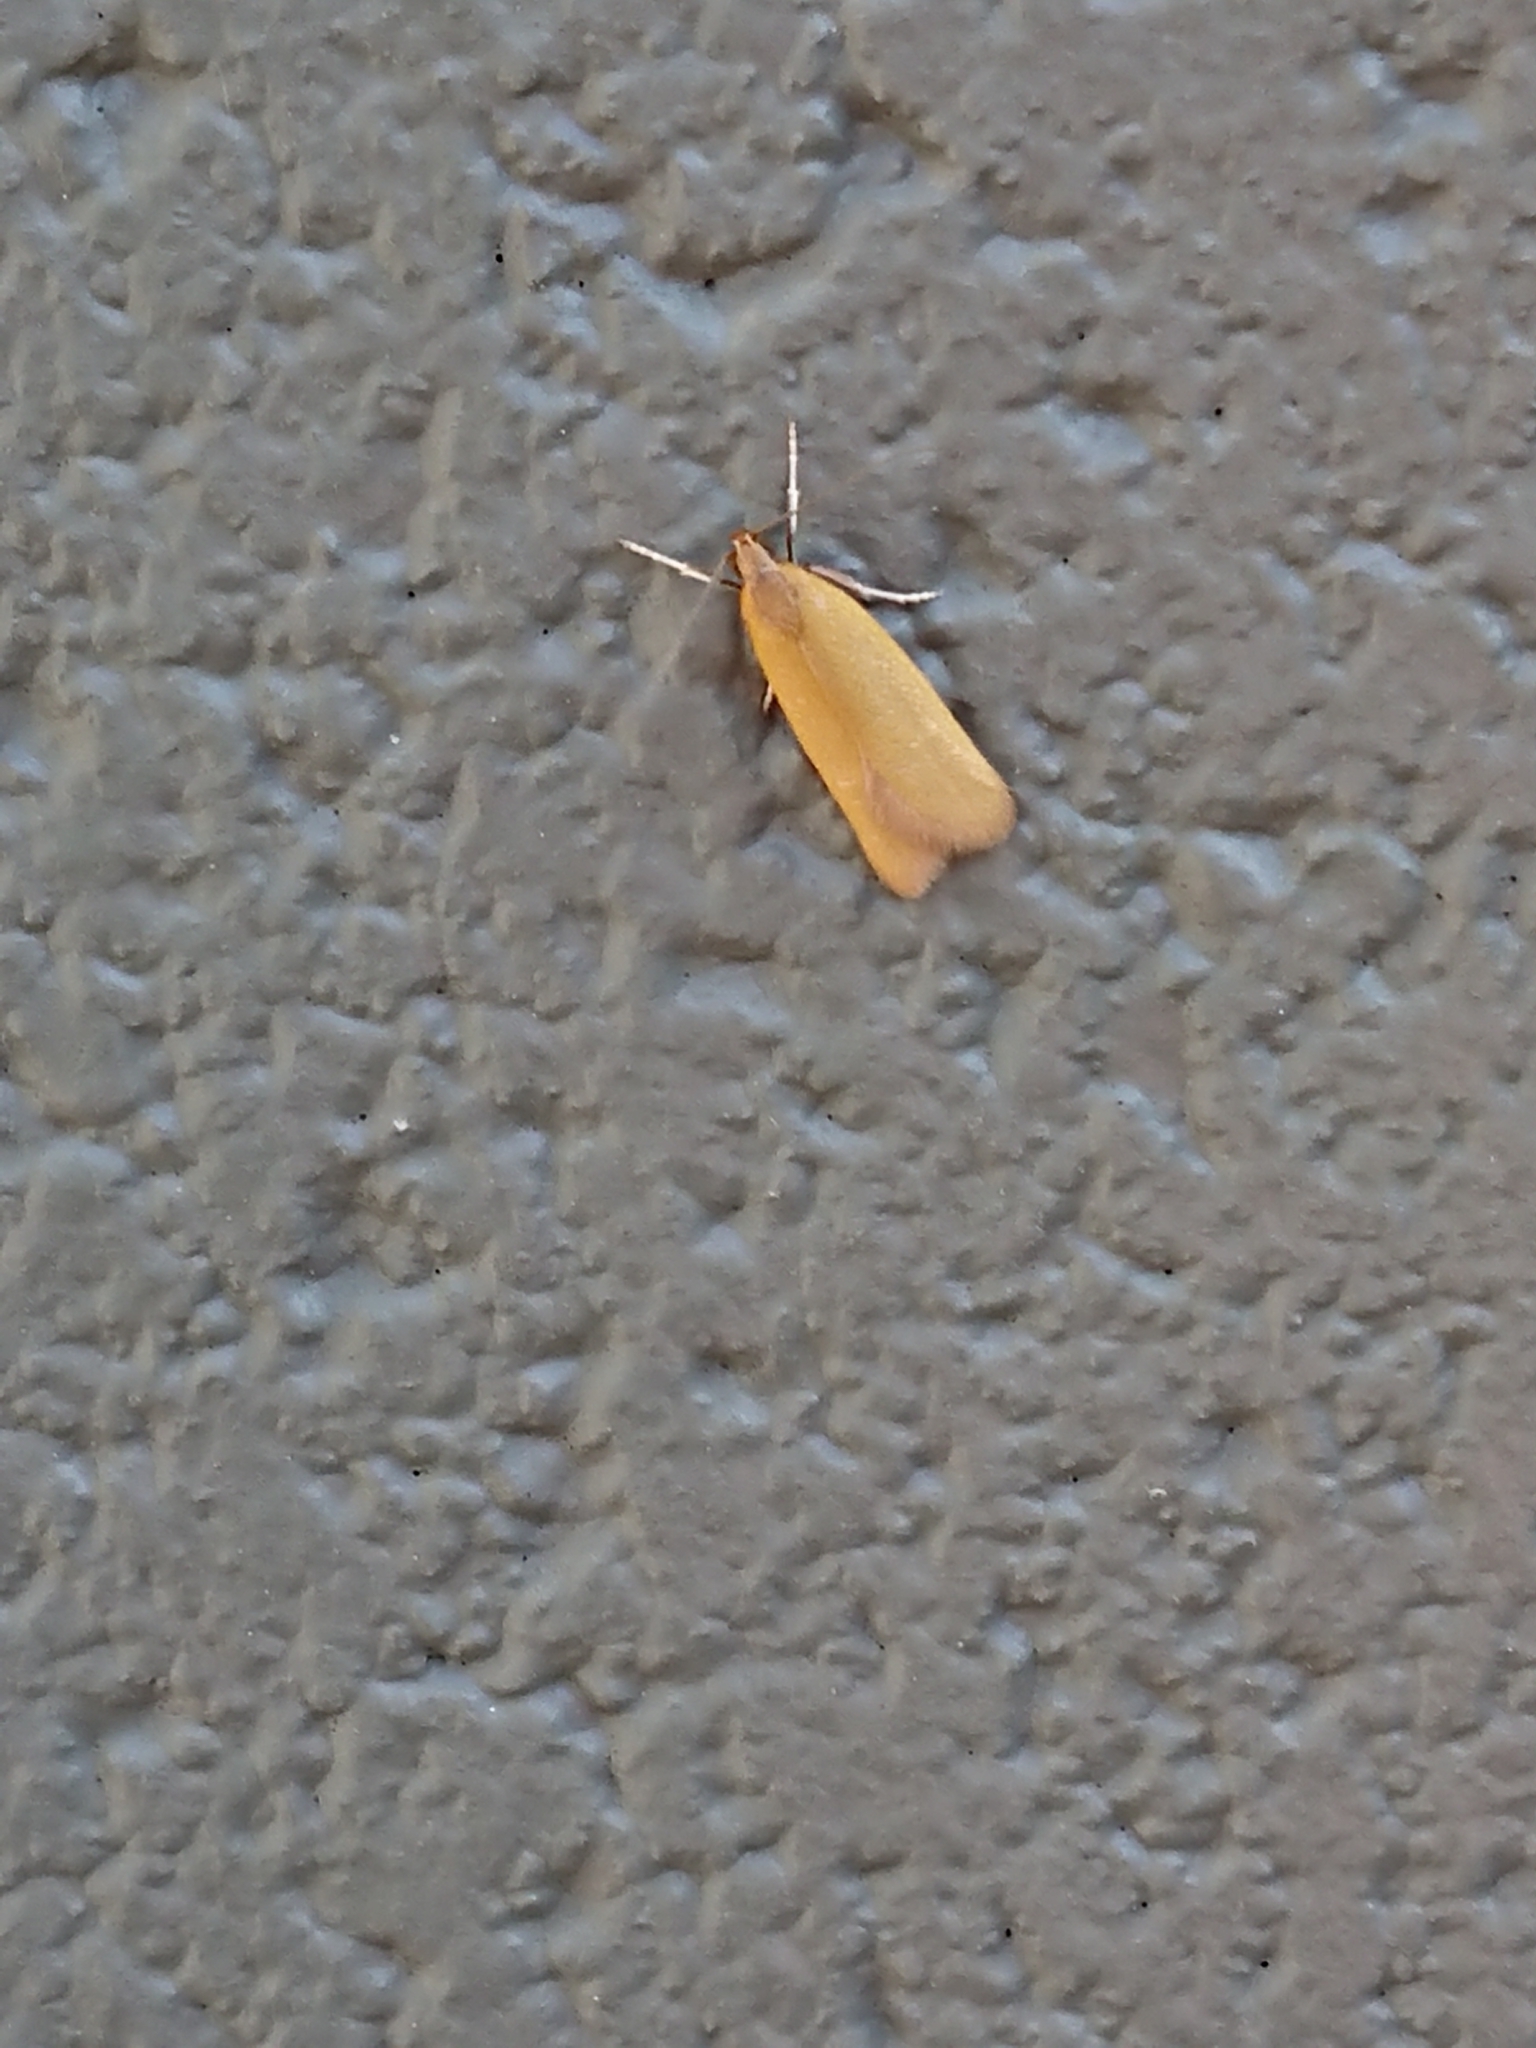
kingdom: Animalia
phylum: Arthropoda
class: Insecta
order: Lepidoptera
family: Oecophoridae
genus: Gymnobathra
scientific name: Gymnobathra parca
